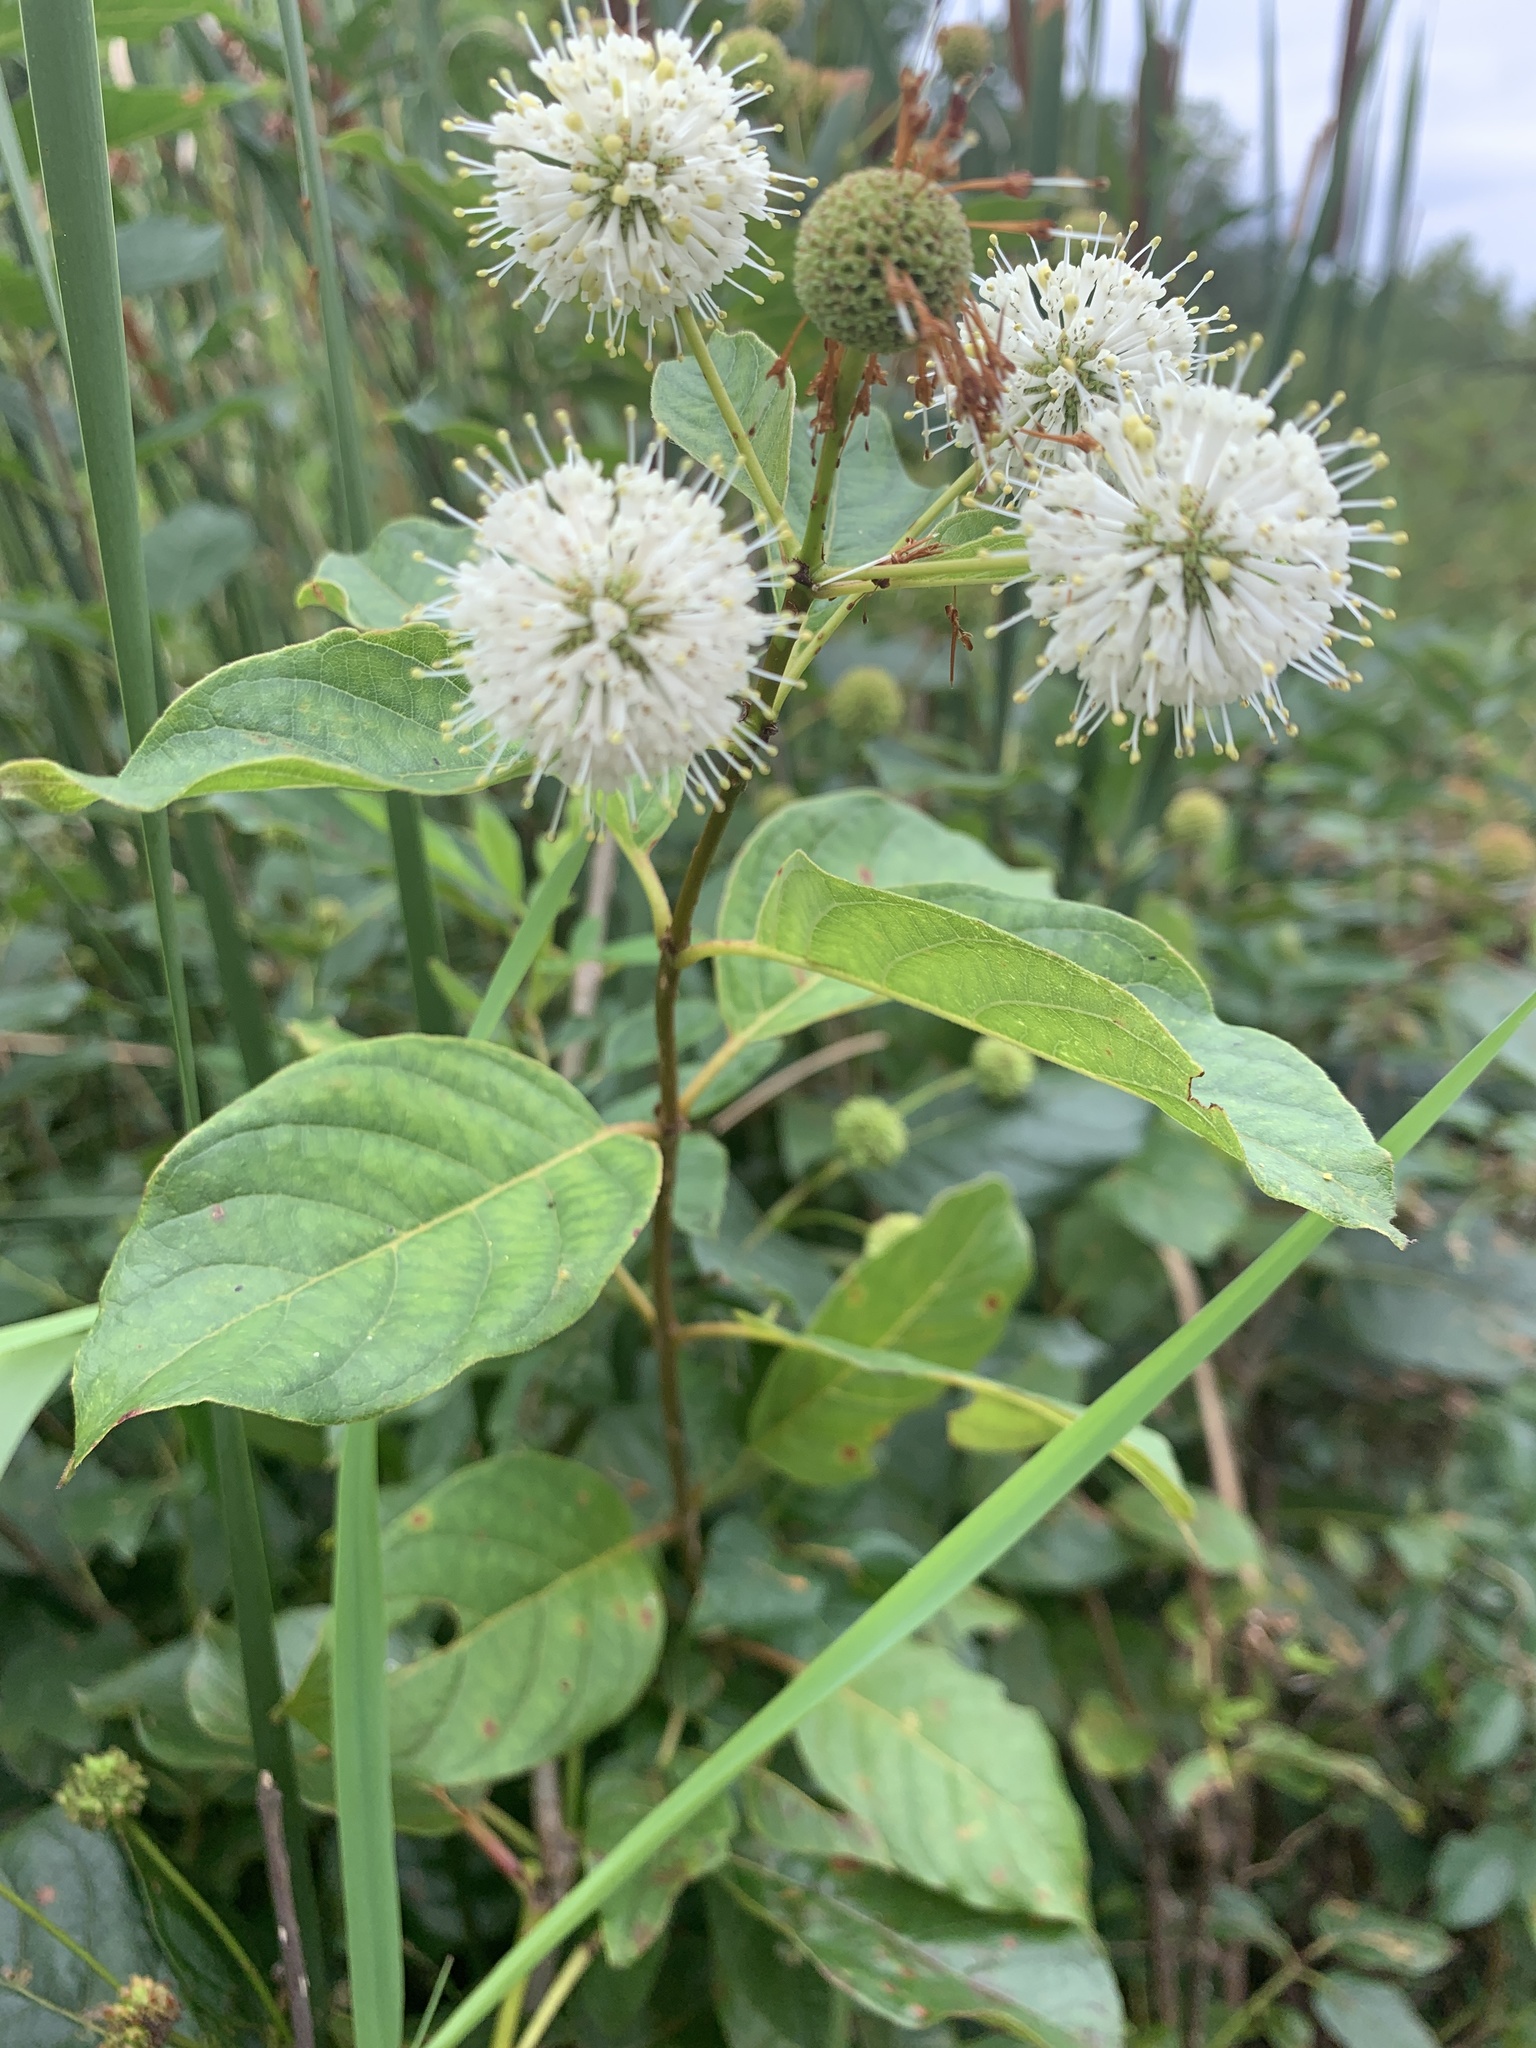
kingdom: Plantae
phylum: Tracheophyta
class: Magnoliopsida
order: Gentianales
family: Rubiaceae
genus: Cephalanthus
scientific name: Cephalanthus occidentalis
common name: Button-willow
